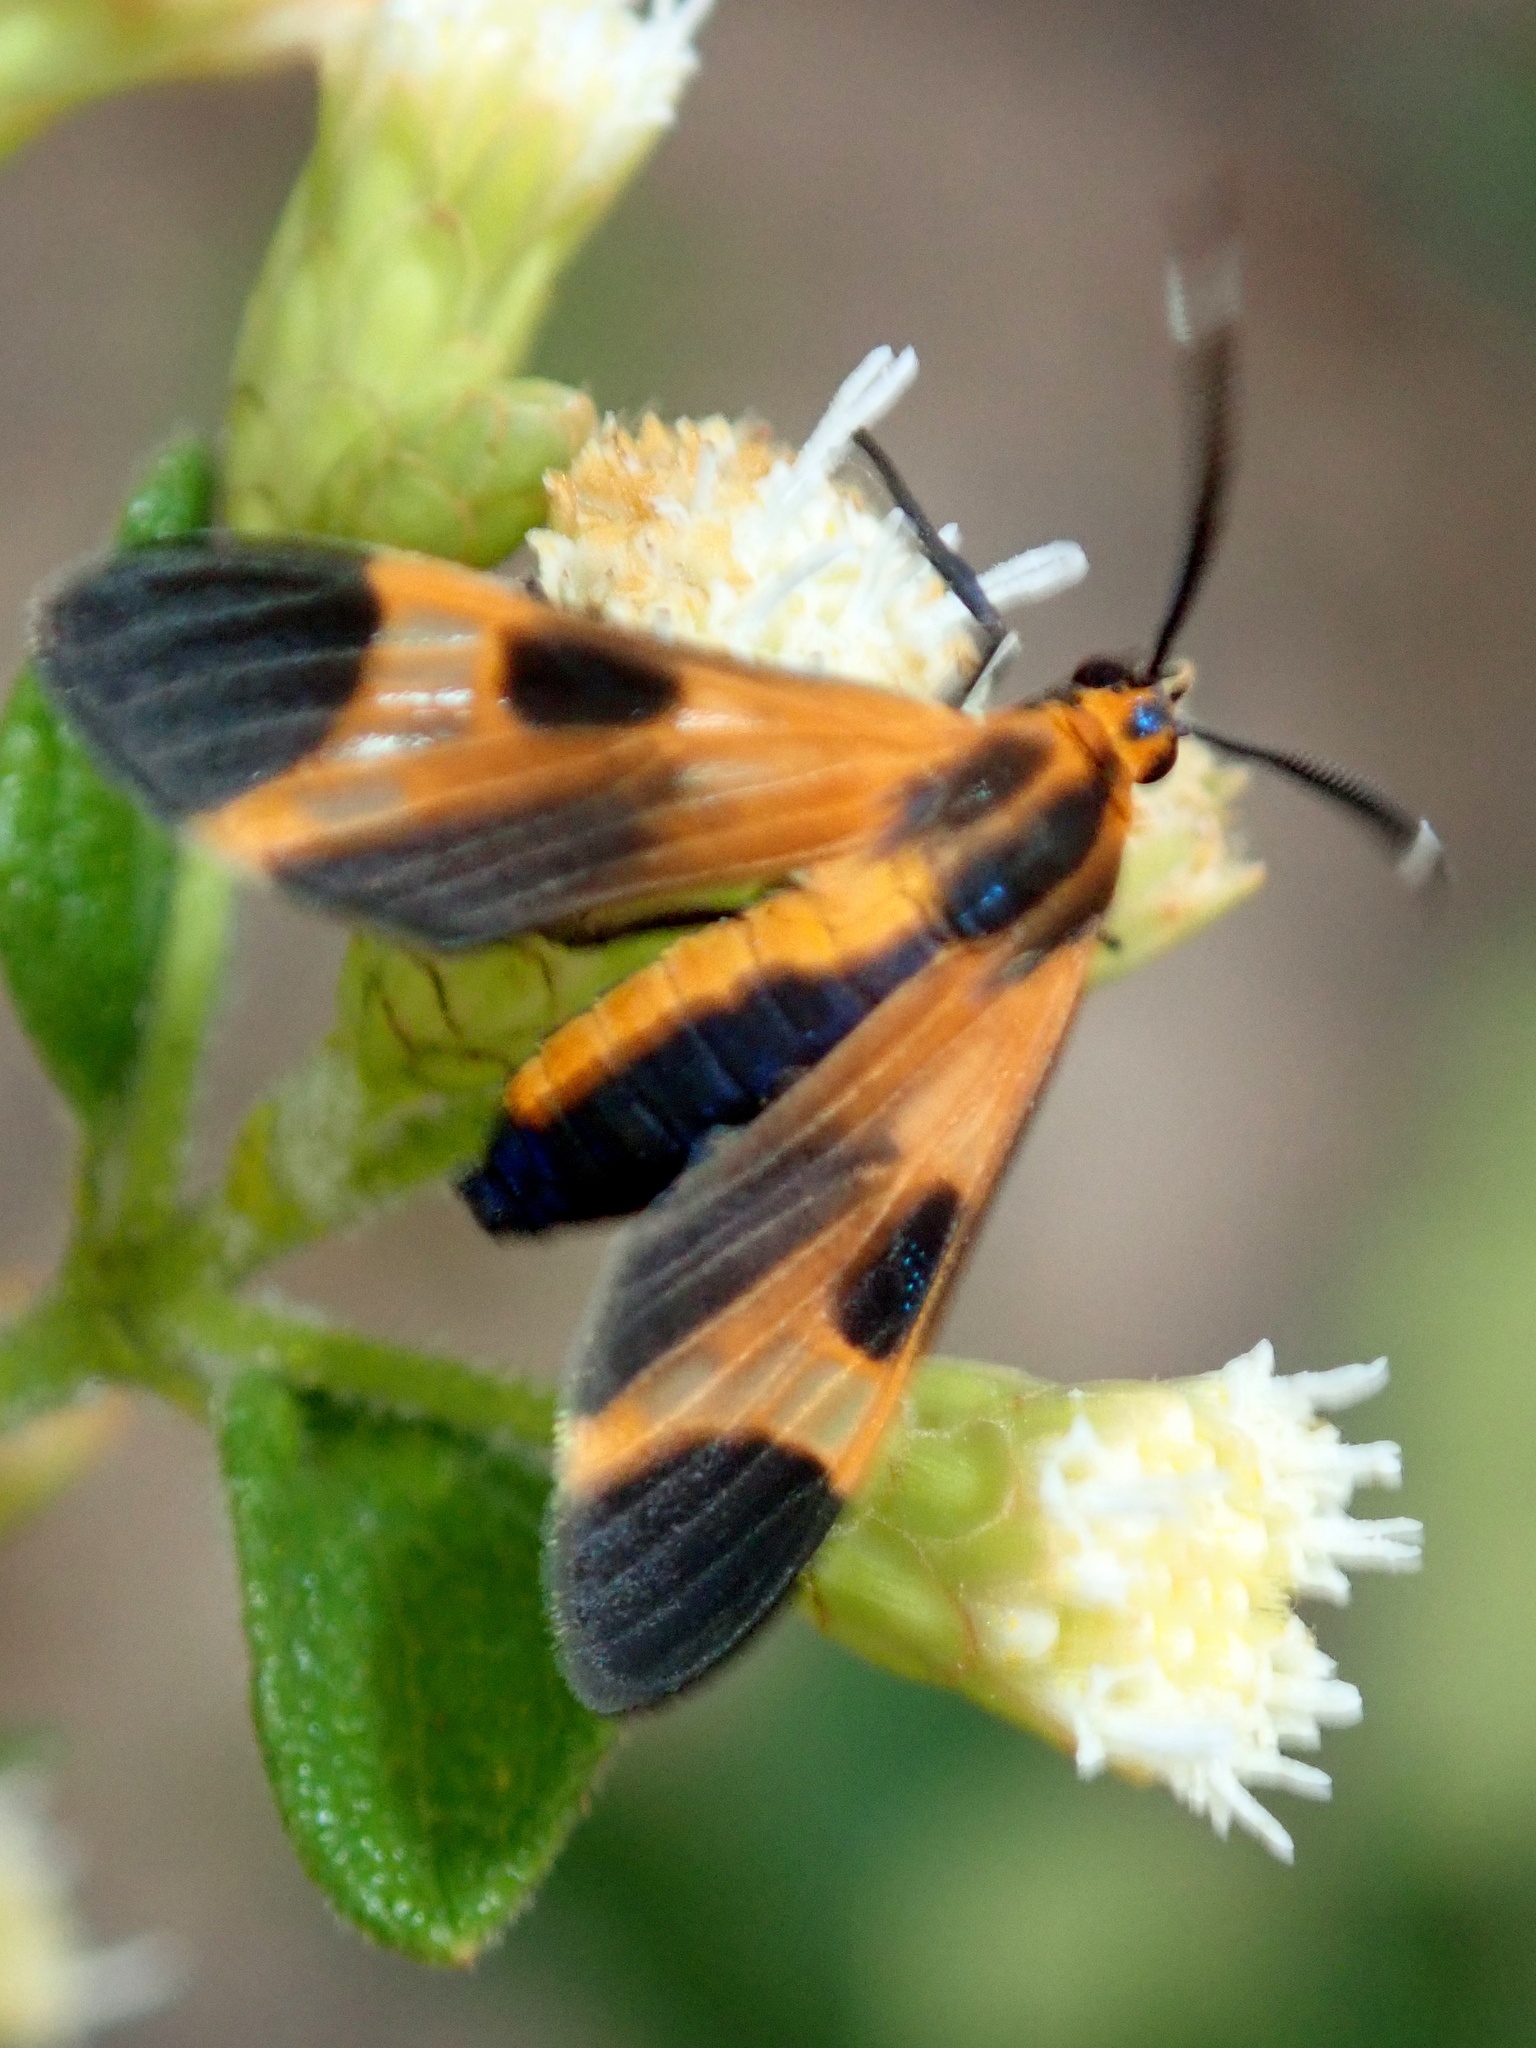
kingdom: Animalia
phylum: Arthropoda
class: Insecta
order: Lepidoptera
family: Erebidae
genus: Dycladia
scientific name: Dycladia emerita
